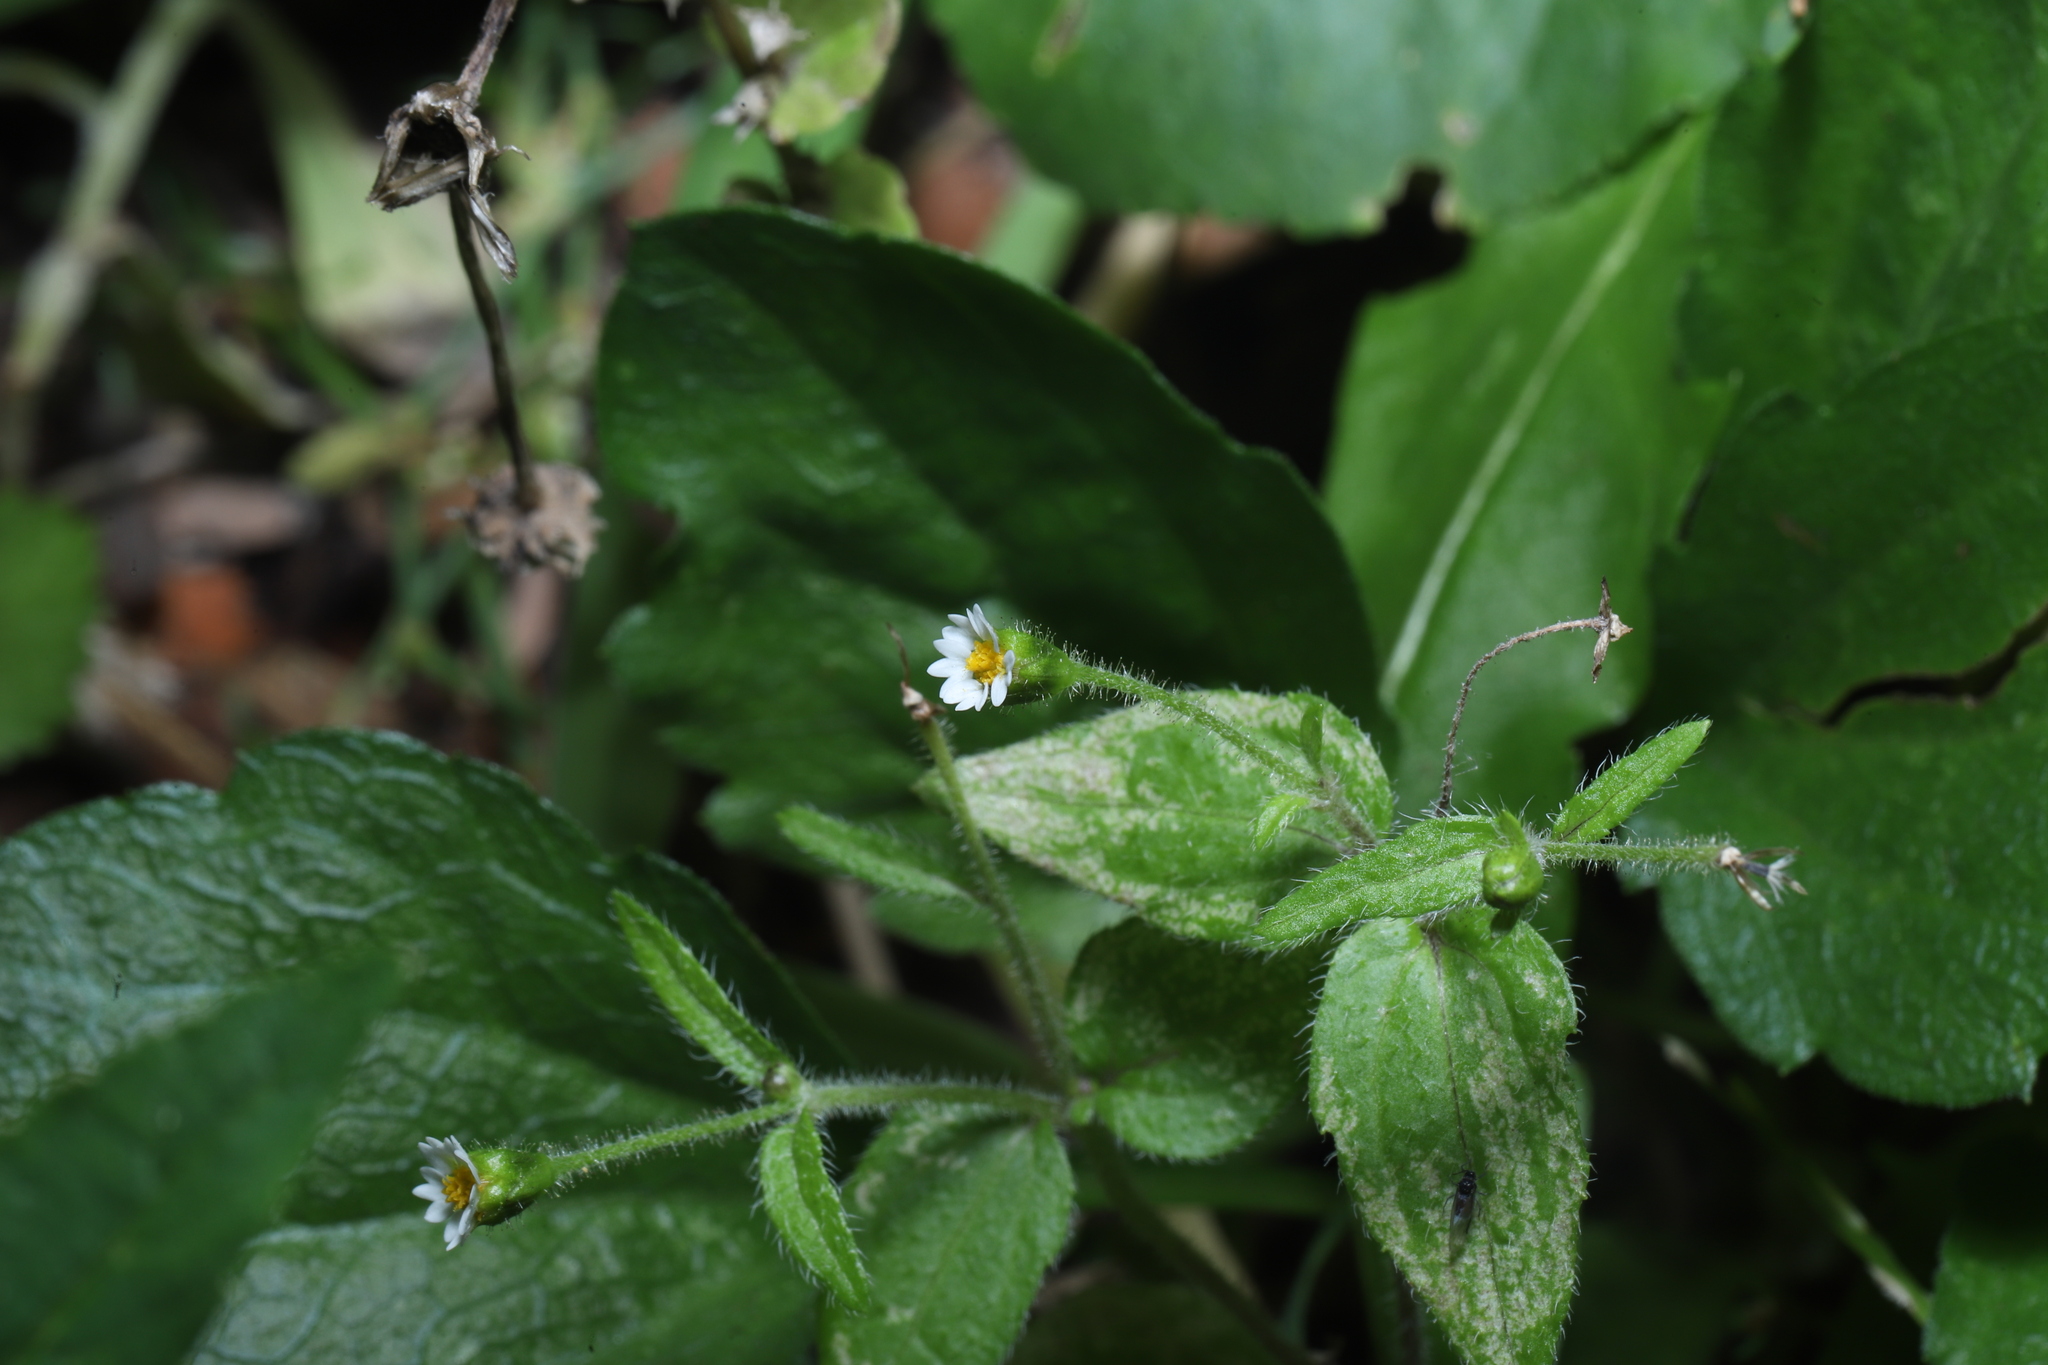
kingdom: Plantae
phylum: Tracheophyta
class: Magnoliopsida
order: Asterales
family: Asteraceae
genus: Galinsoga
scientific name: Galinsoga quadriradiata
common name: Shaggy soldier
